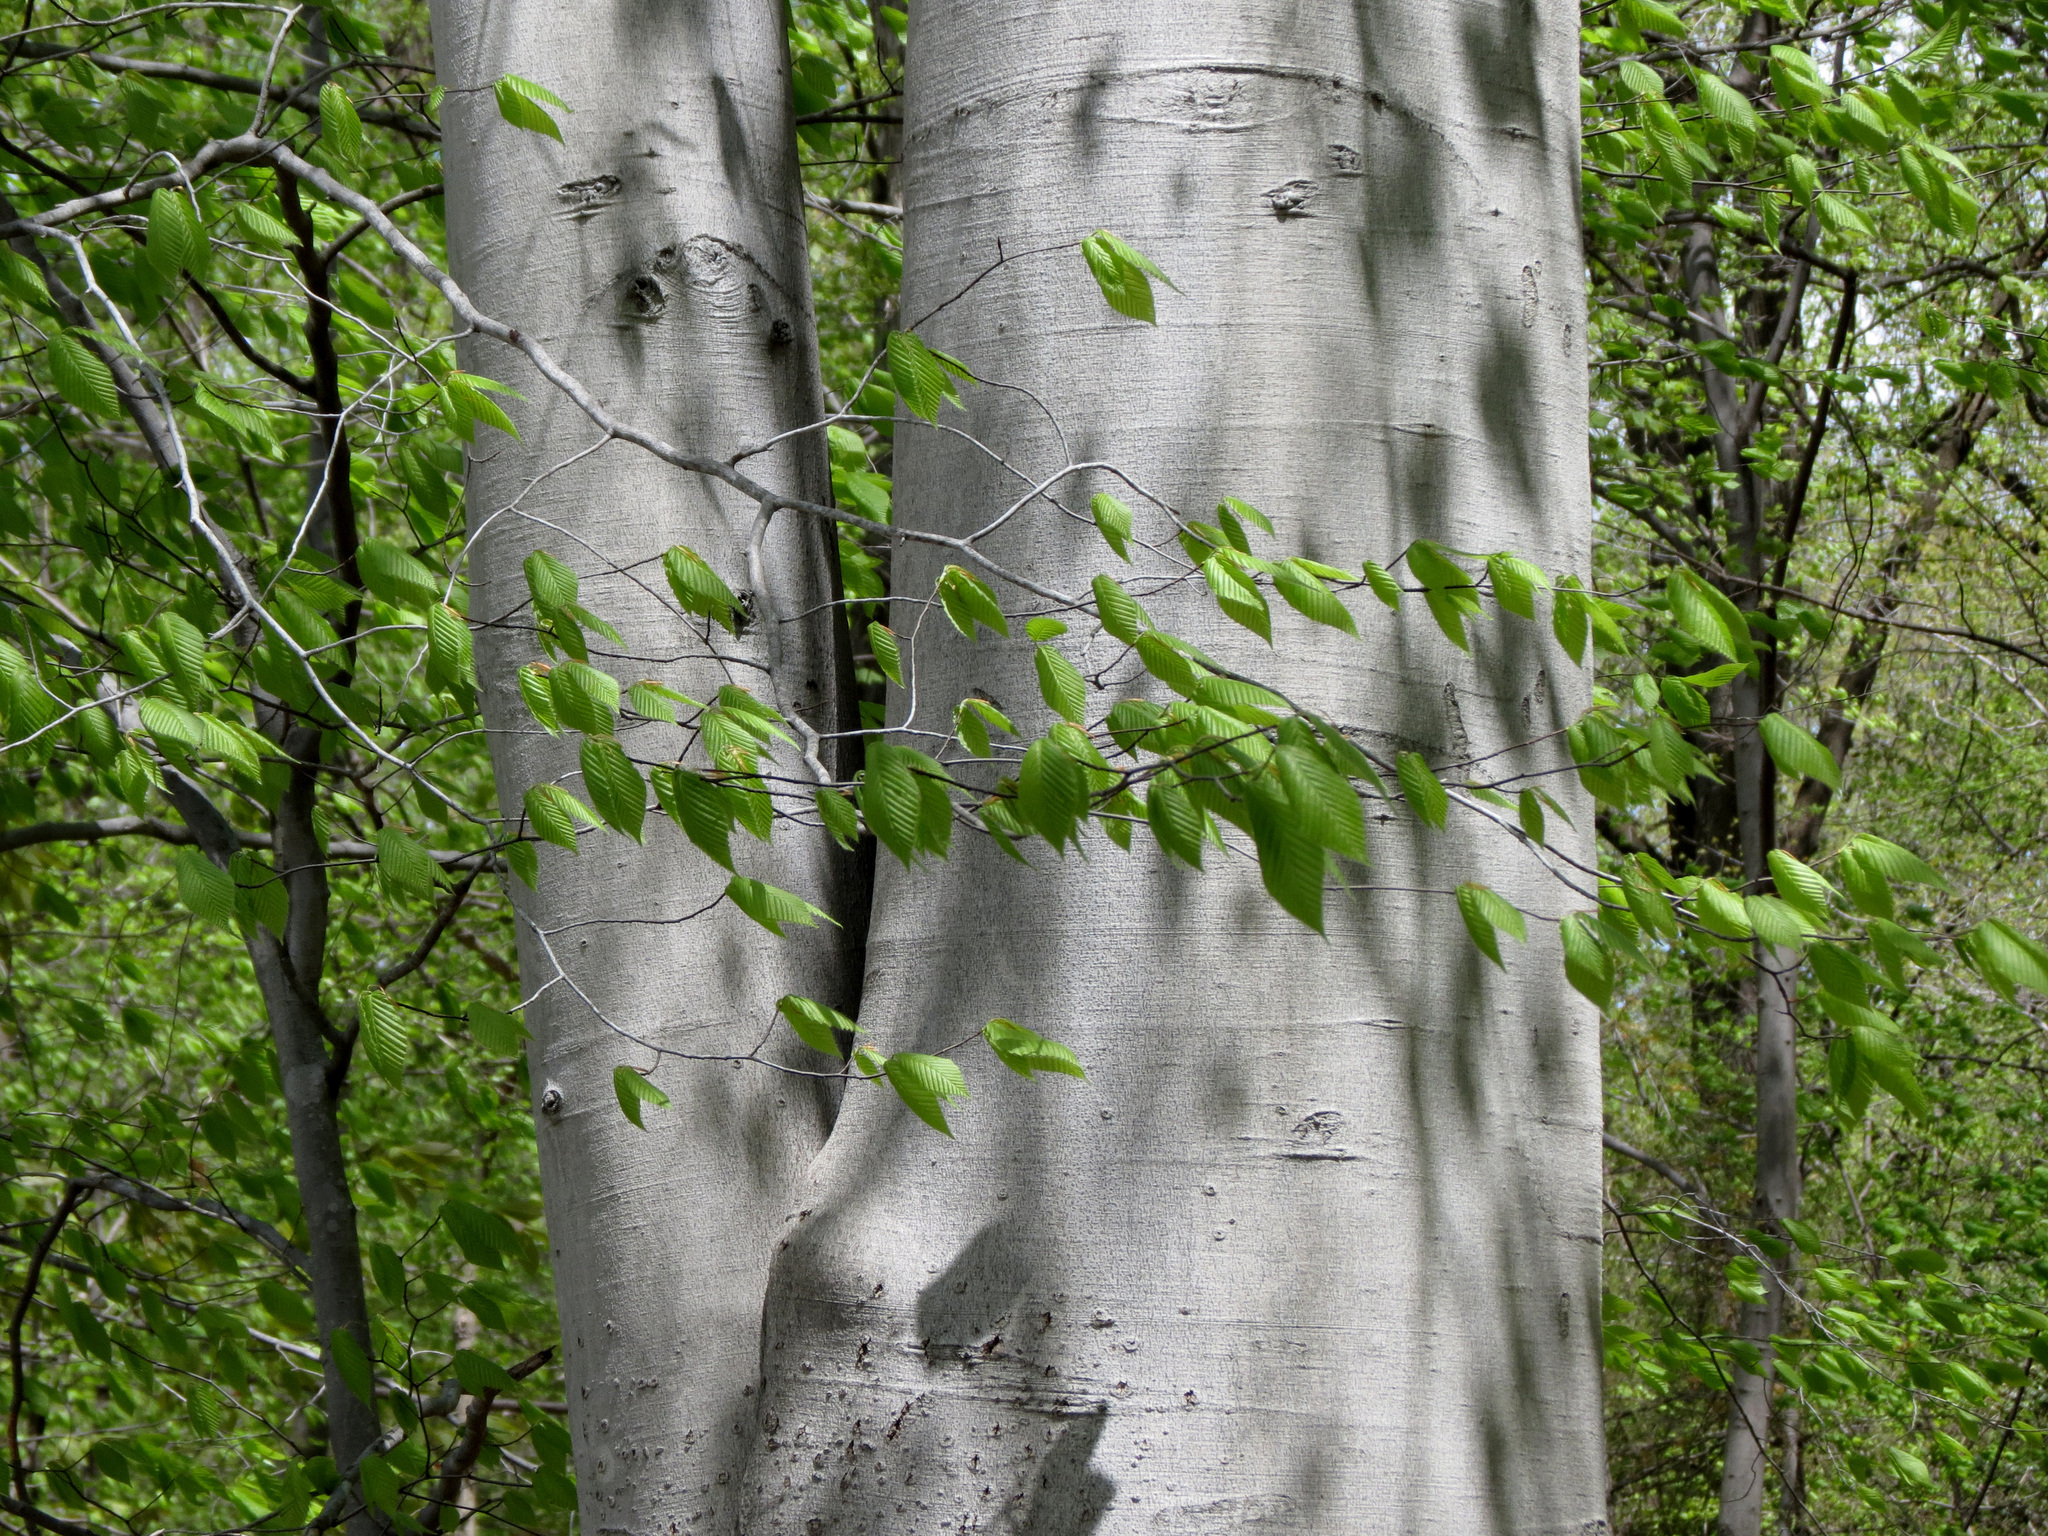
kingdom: Plantae
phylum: Tracheophyta
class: Magnoliopsida
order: Fagales
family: Fagaceae
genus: Fagus
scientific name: Fagus grandifolia
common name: American beech
